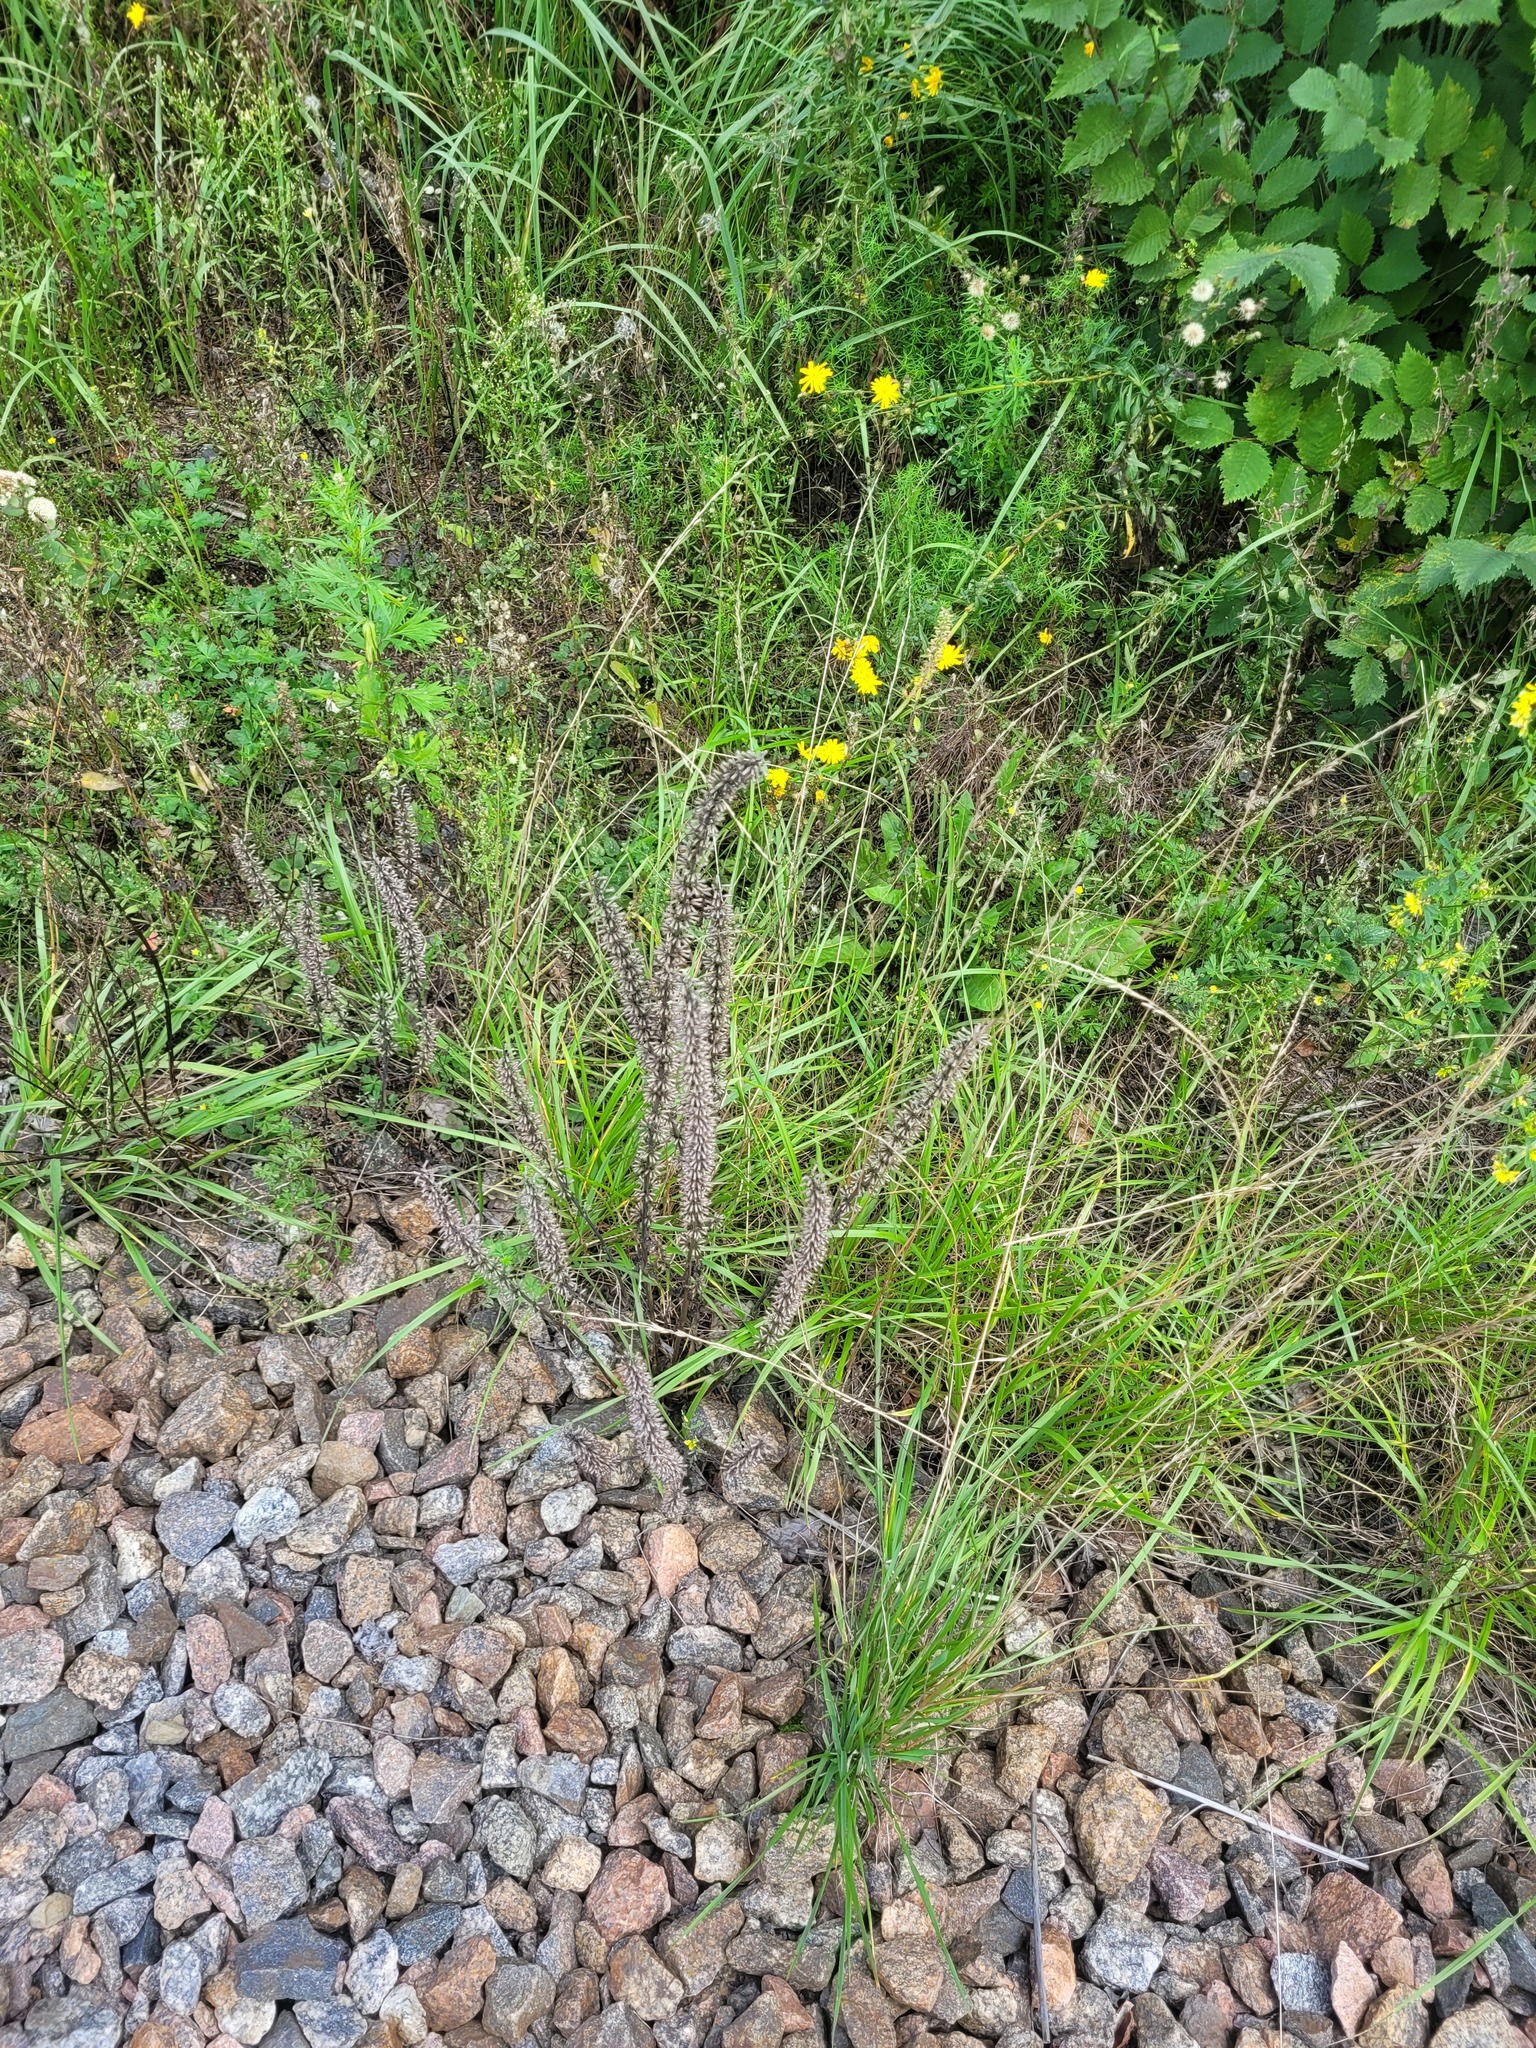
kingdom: Plantae
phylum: Tracheophyta
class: Magnoliopsida
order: Lamiales
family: Lamiaceae
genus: Dracocephalum
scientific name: Dracocephalum thymiflorum
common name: Thymeleaf dragonhead
